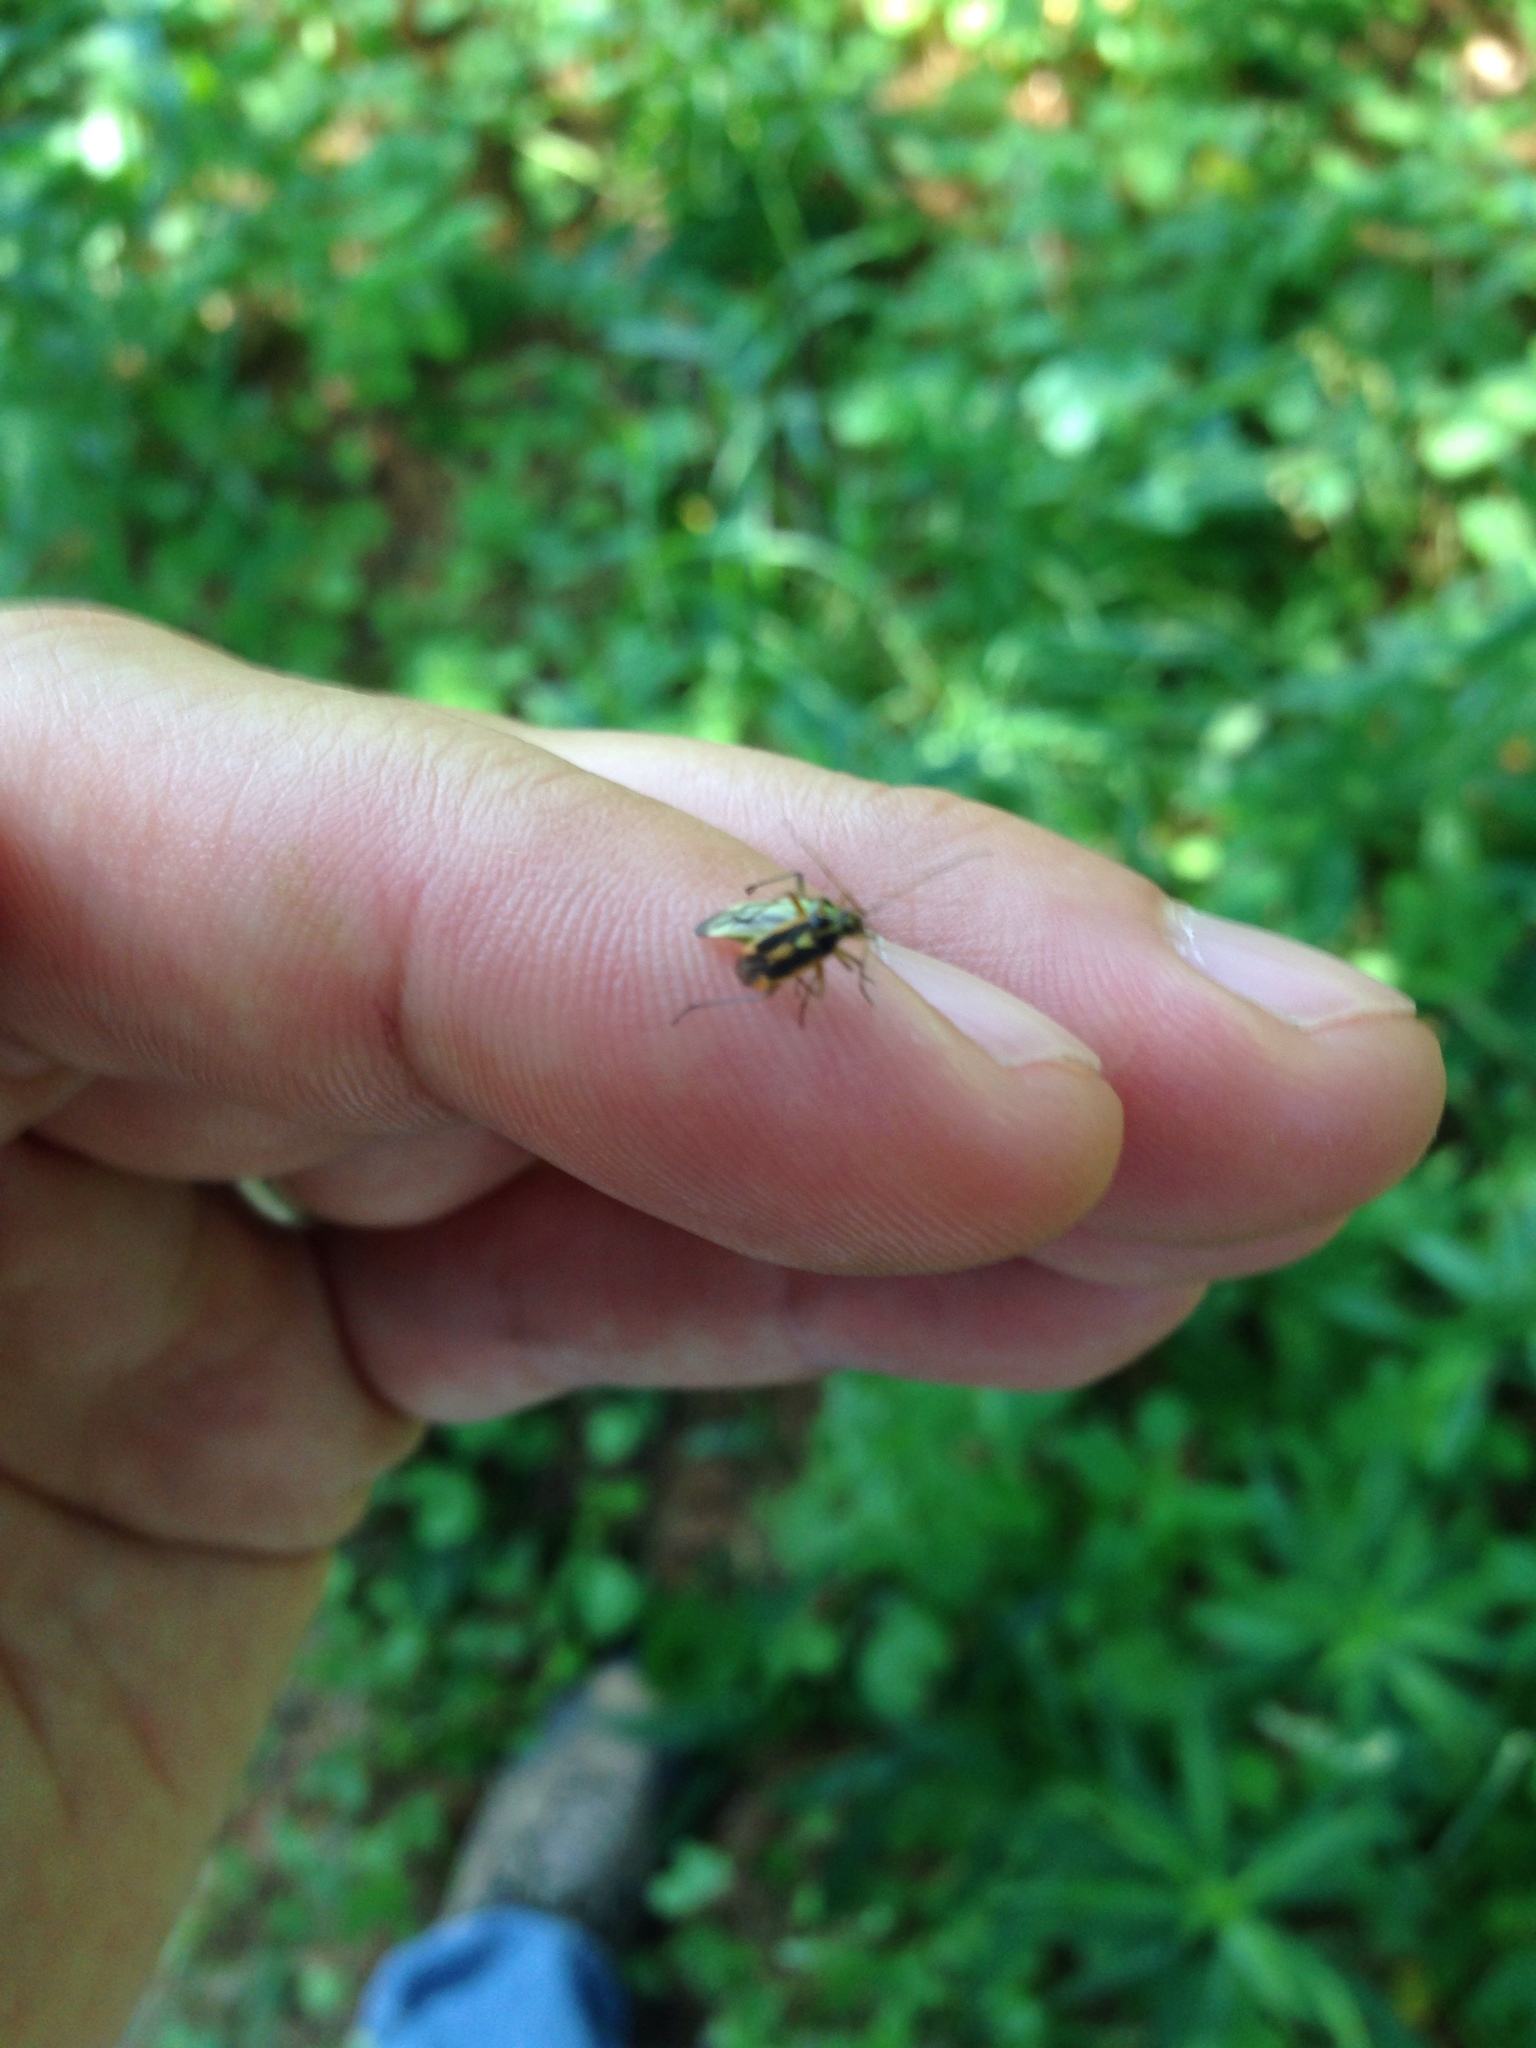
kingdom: Animalia
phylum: Arthropoda
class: Insecta
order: Hemiptera
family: Miridae
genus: Stenotus
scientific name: Stenotus binotatus
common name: Plant bug
